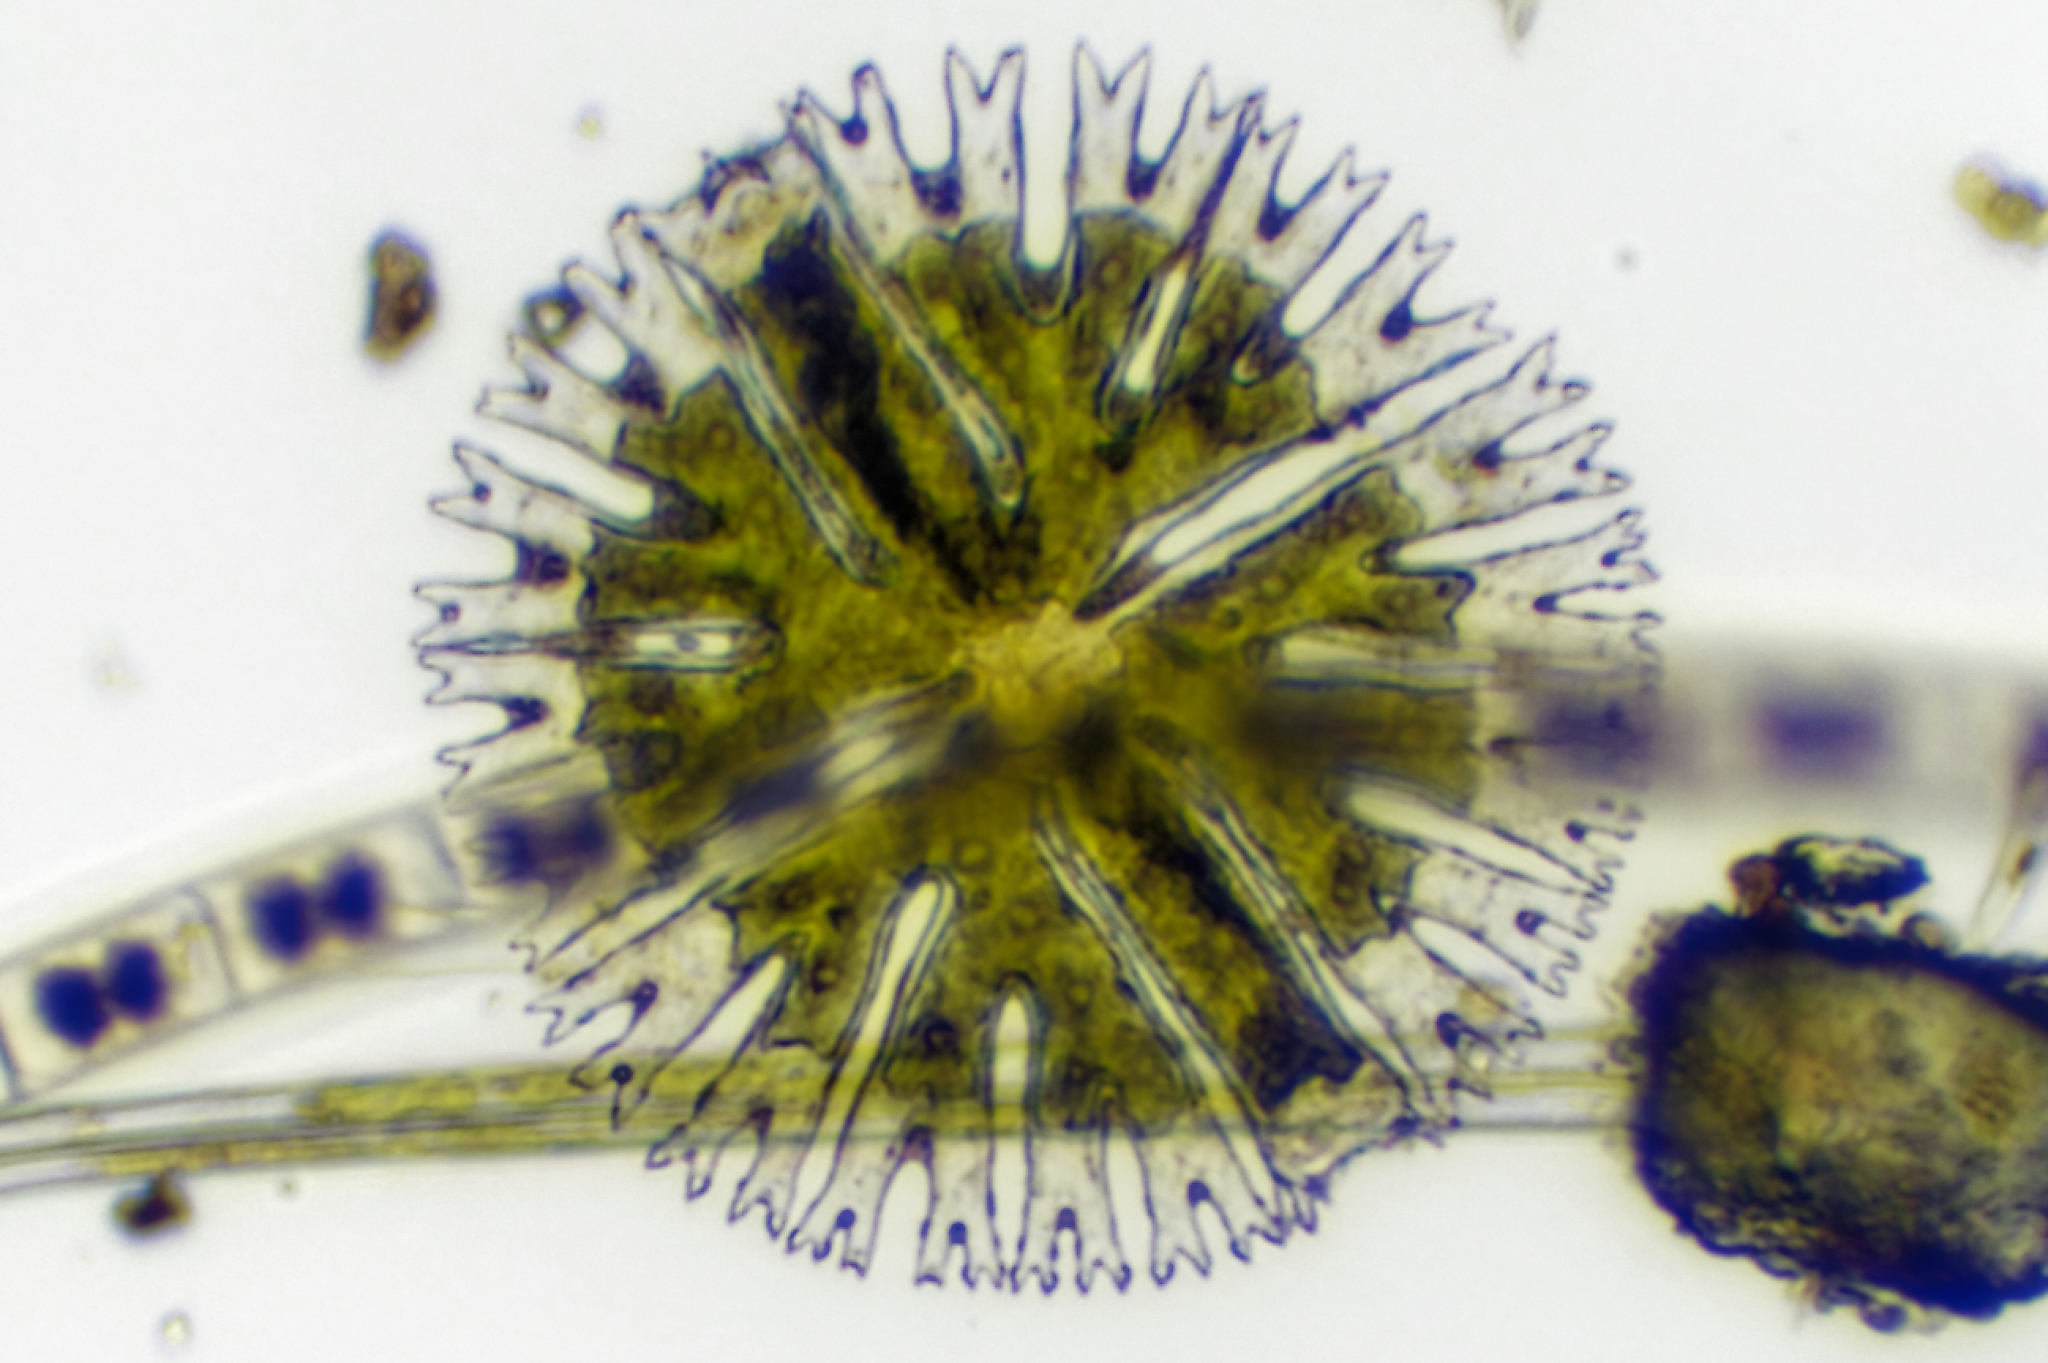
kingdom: Plantae
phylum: Charophyta
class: Conjugatophyceae
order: Desmidiales
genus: Micrasterias
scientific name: Micrasterias radiosa
